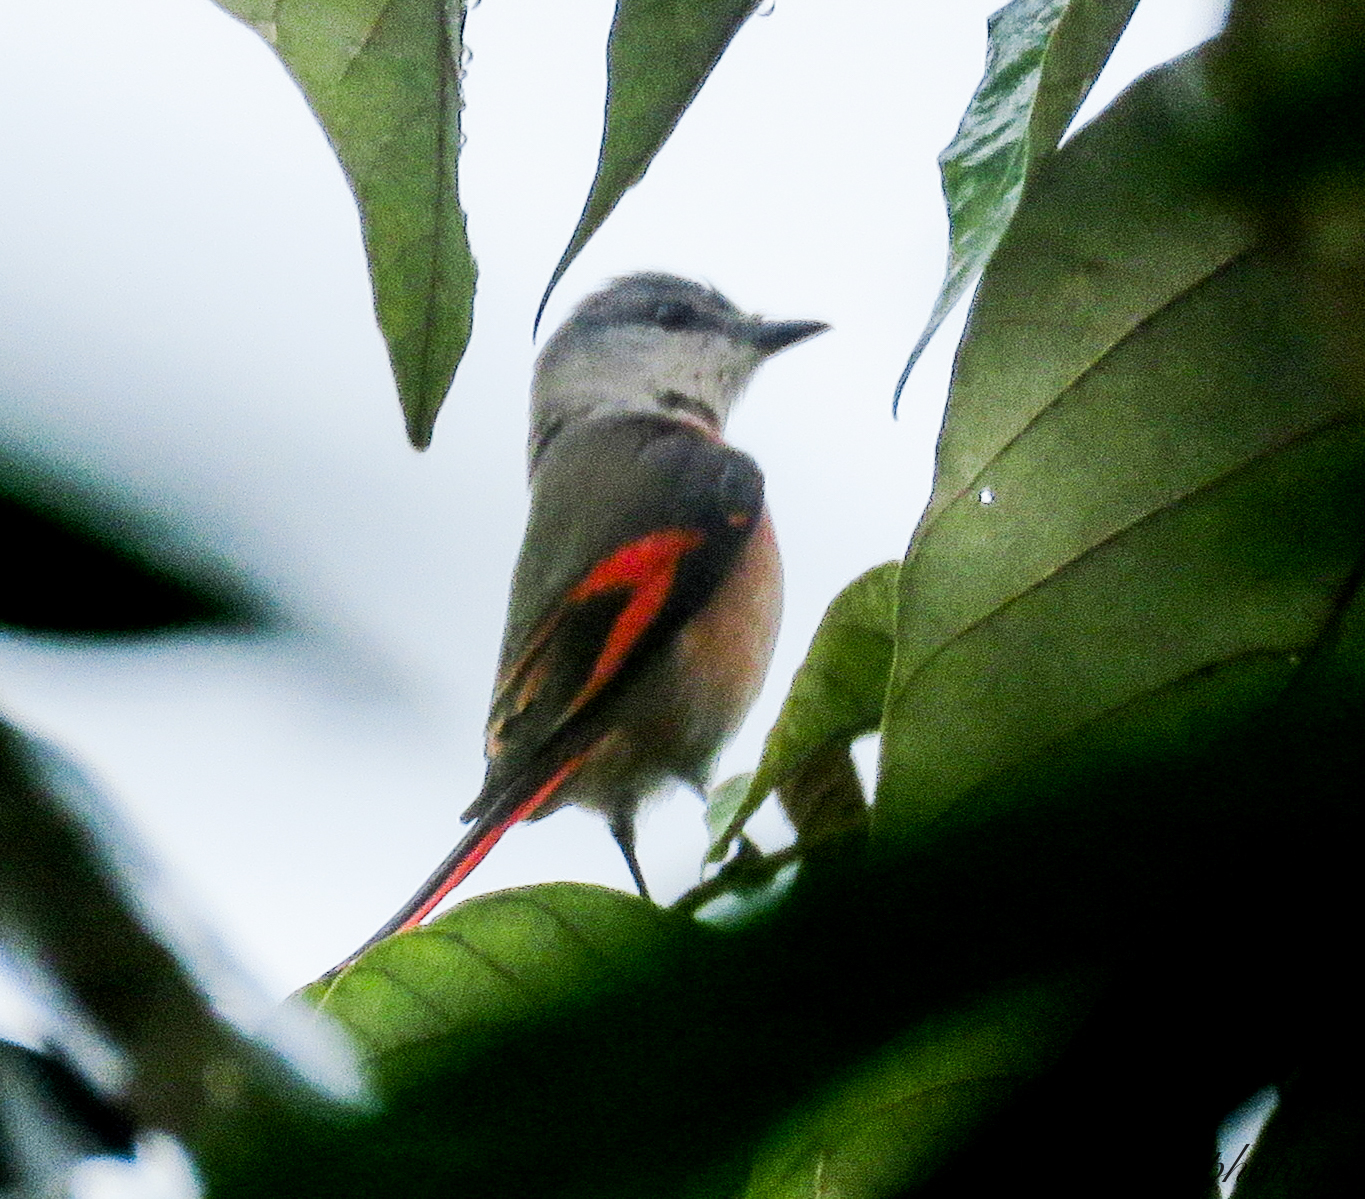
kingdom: Animalia
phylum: Chordata
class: Aves
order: Passeriformes
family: Campephagidae
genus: Pericrocotus
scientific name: Pericrocotus roseus
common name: Rosy minivet
